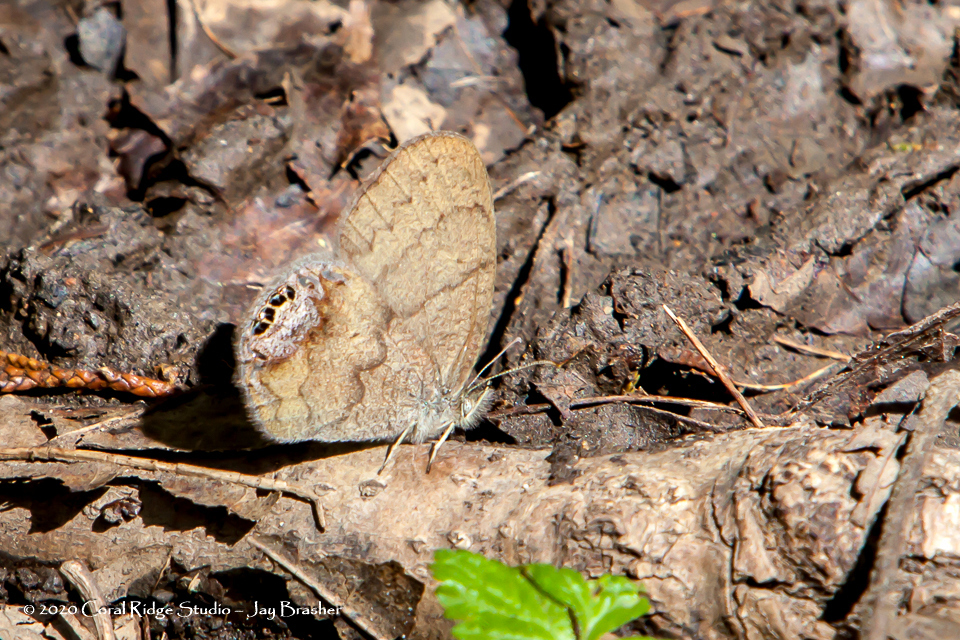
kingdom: Animalia
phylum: Arthropoda
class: Insecta
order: Lepidoptera
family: Nymphalidae
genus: Euptychia
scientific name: Euptychia cornelius
